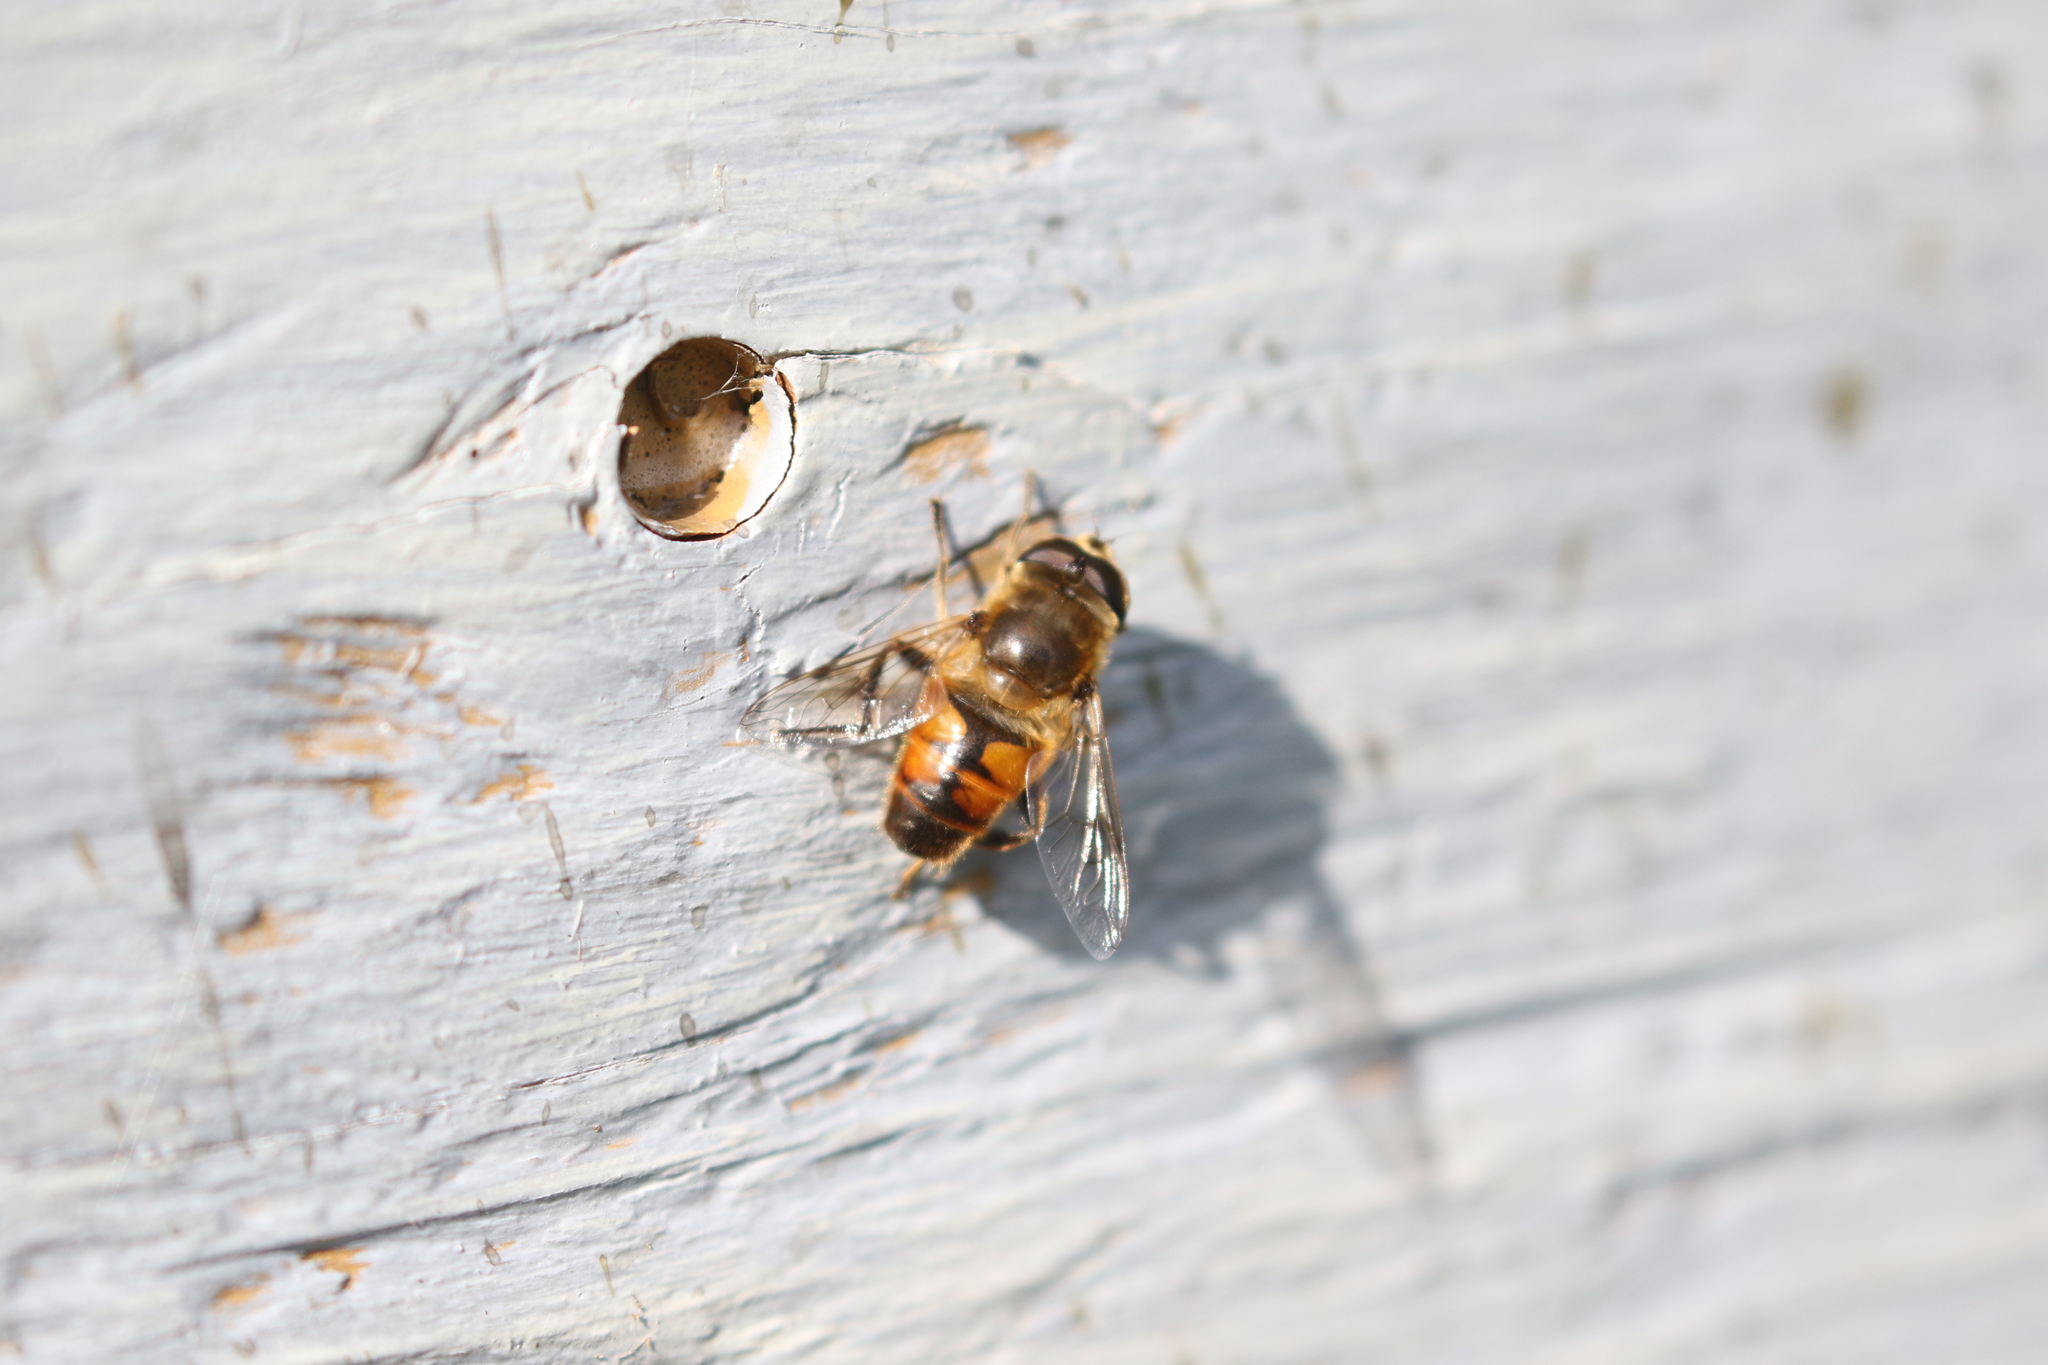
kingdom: Animalia
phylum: Arthropoda
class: Insecta
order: Diptera
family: Syrphidae
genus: Eristalis
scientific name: Eristalis tenax
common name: Drone fly
